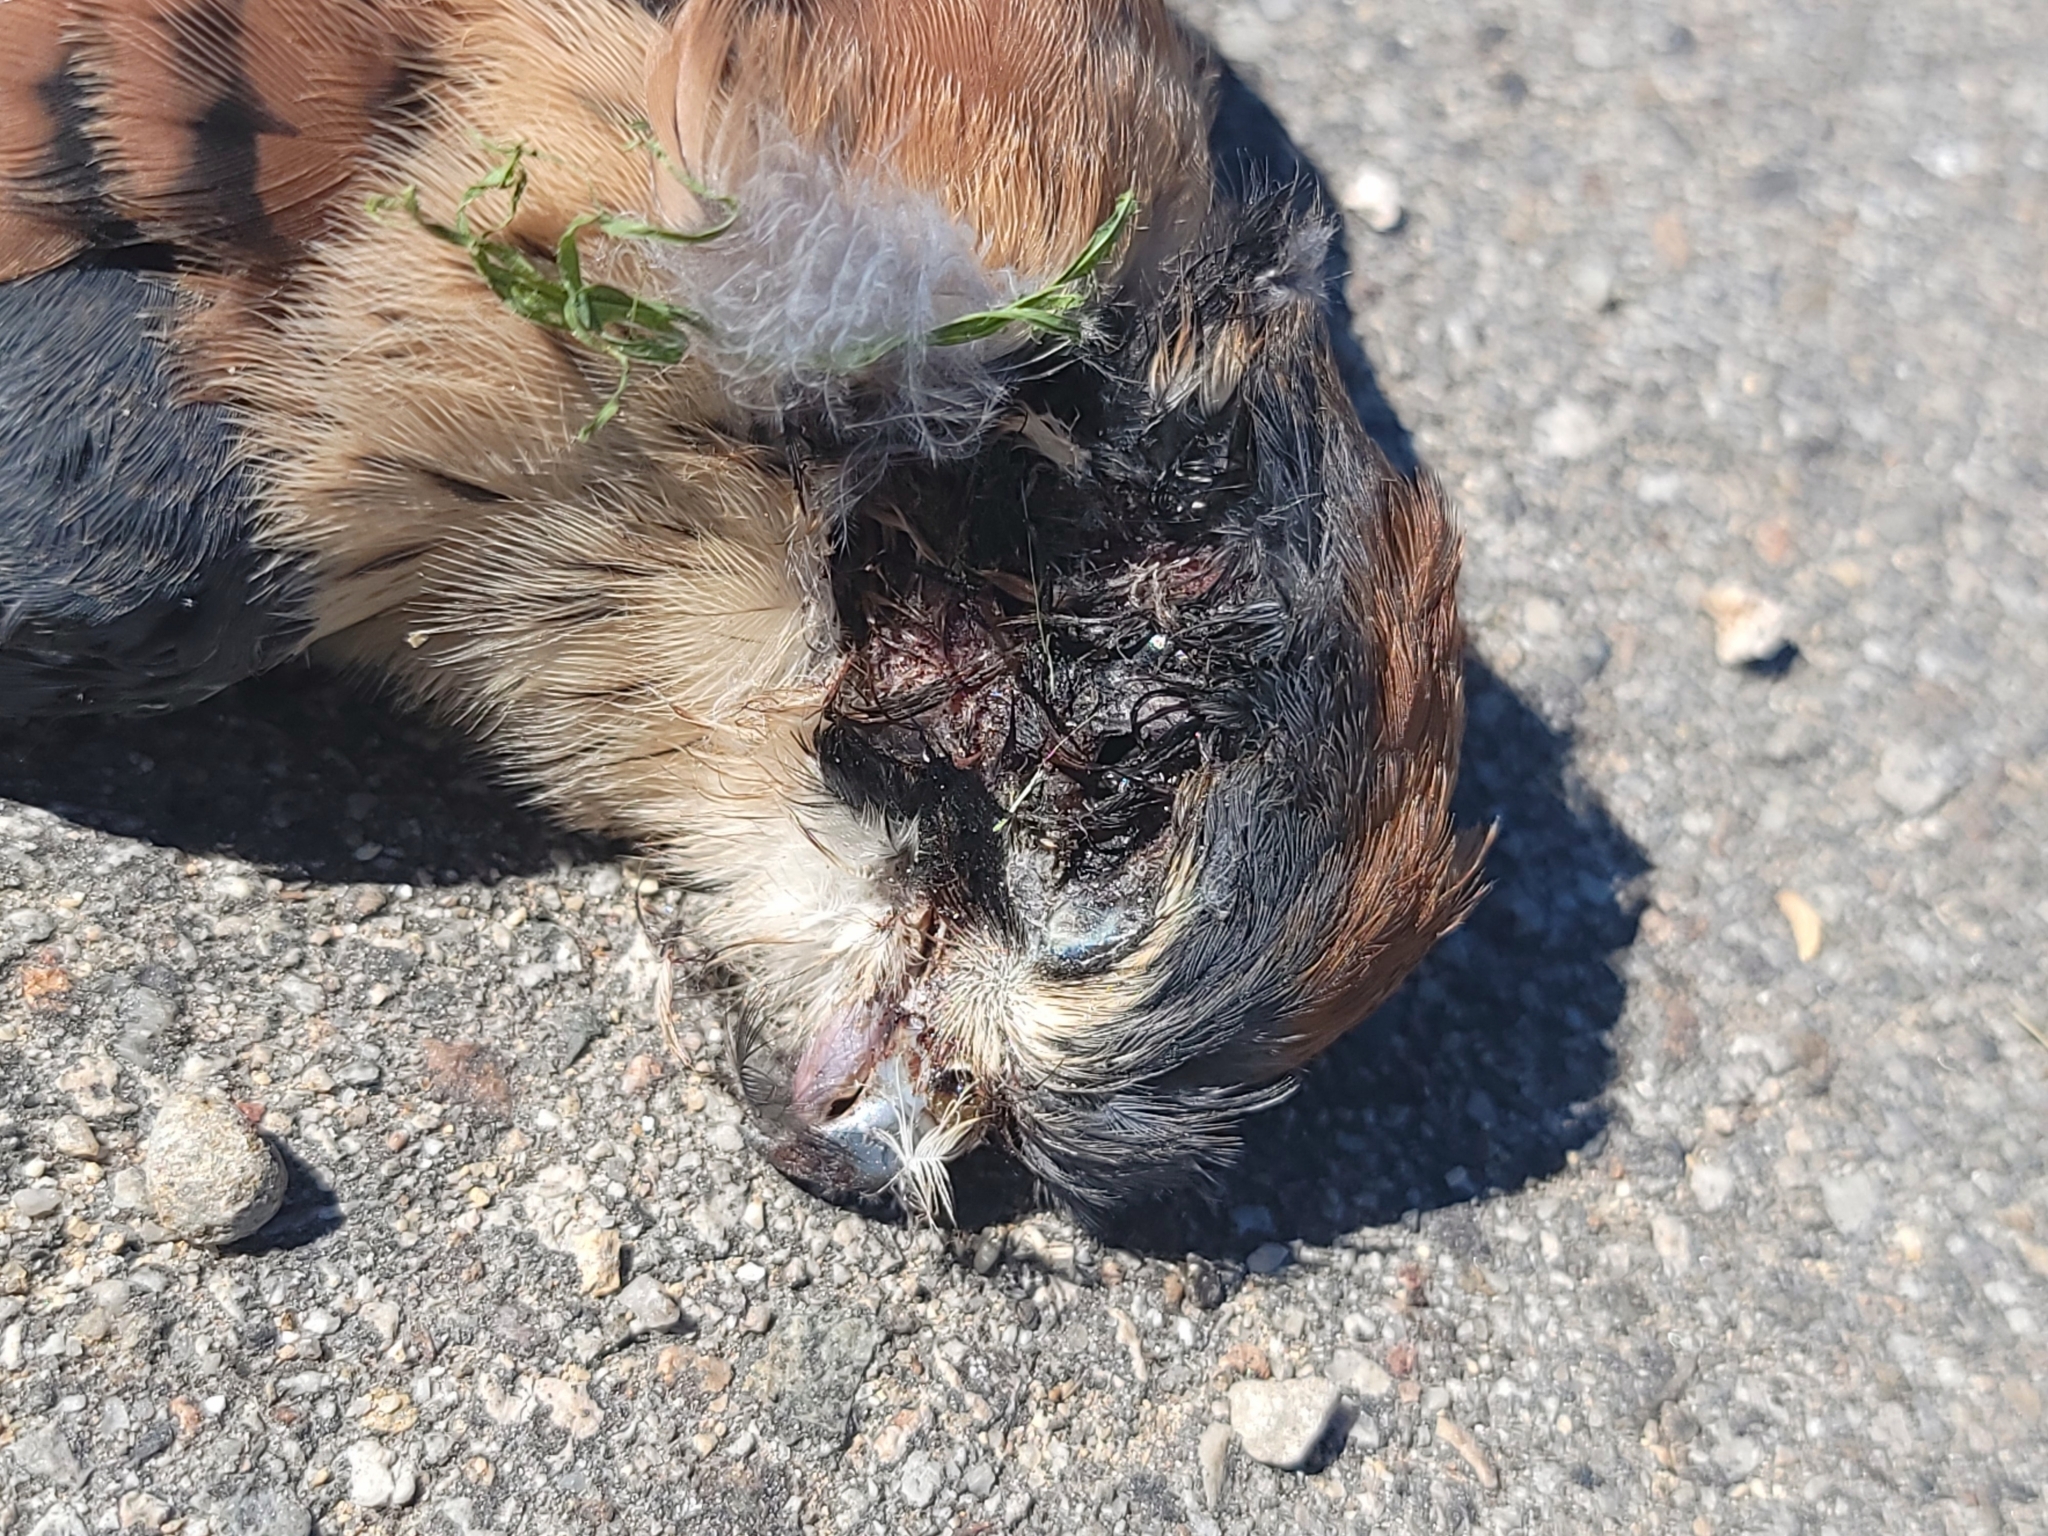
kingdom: Animalia
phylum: Chordata
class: Aves
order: Falconiformes
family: Falconidae
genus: Falco
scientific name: Falco sparverius
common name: American kestrel
